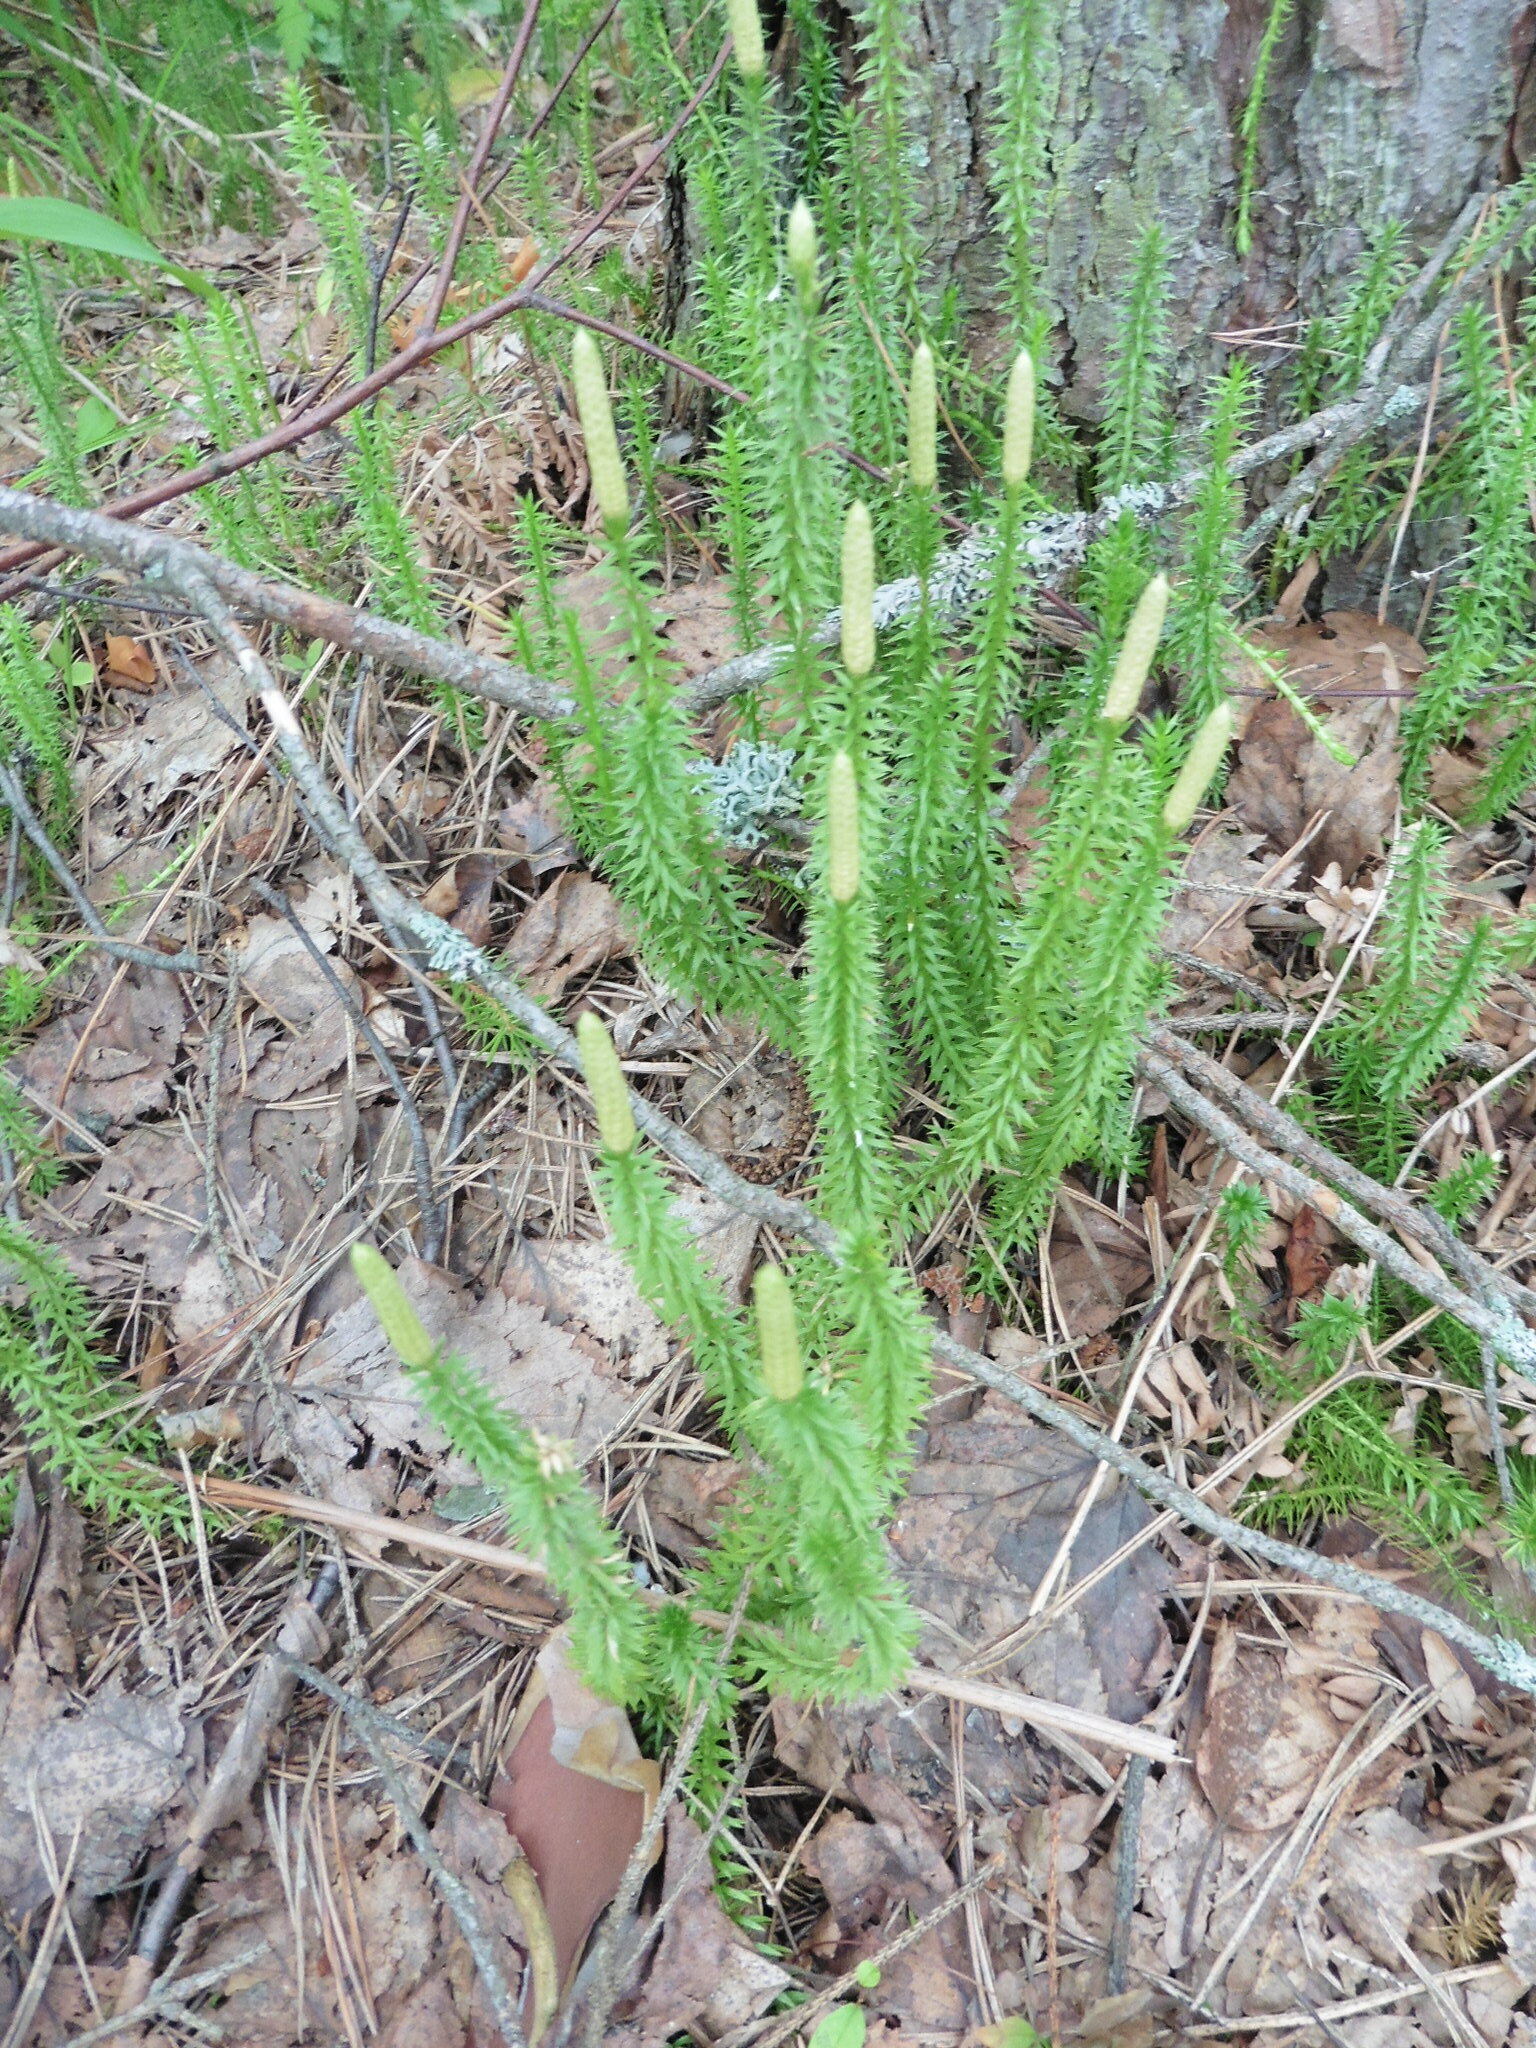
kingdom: Plantae
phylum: Tracheophyta
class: Lycopodiopsida
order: Lycopodiales
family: Lycopodiaceae
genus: Spinulum
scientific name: Spinulum annotinum
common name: Interrupted club-moss
